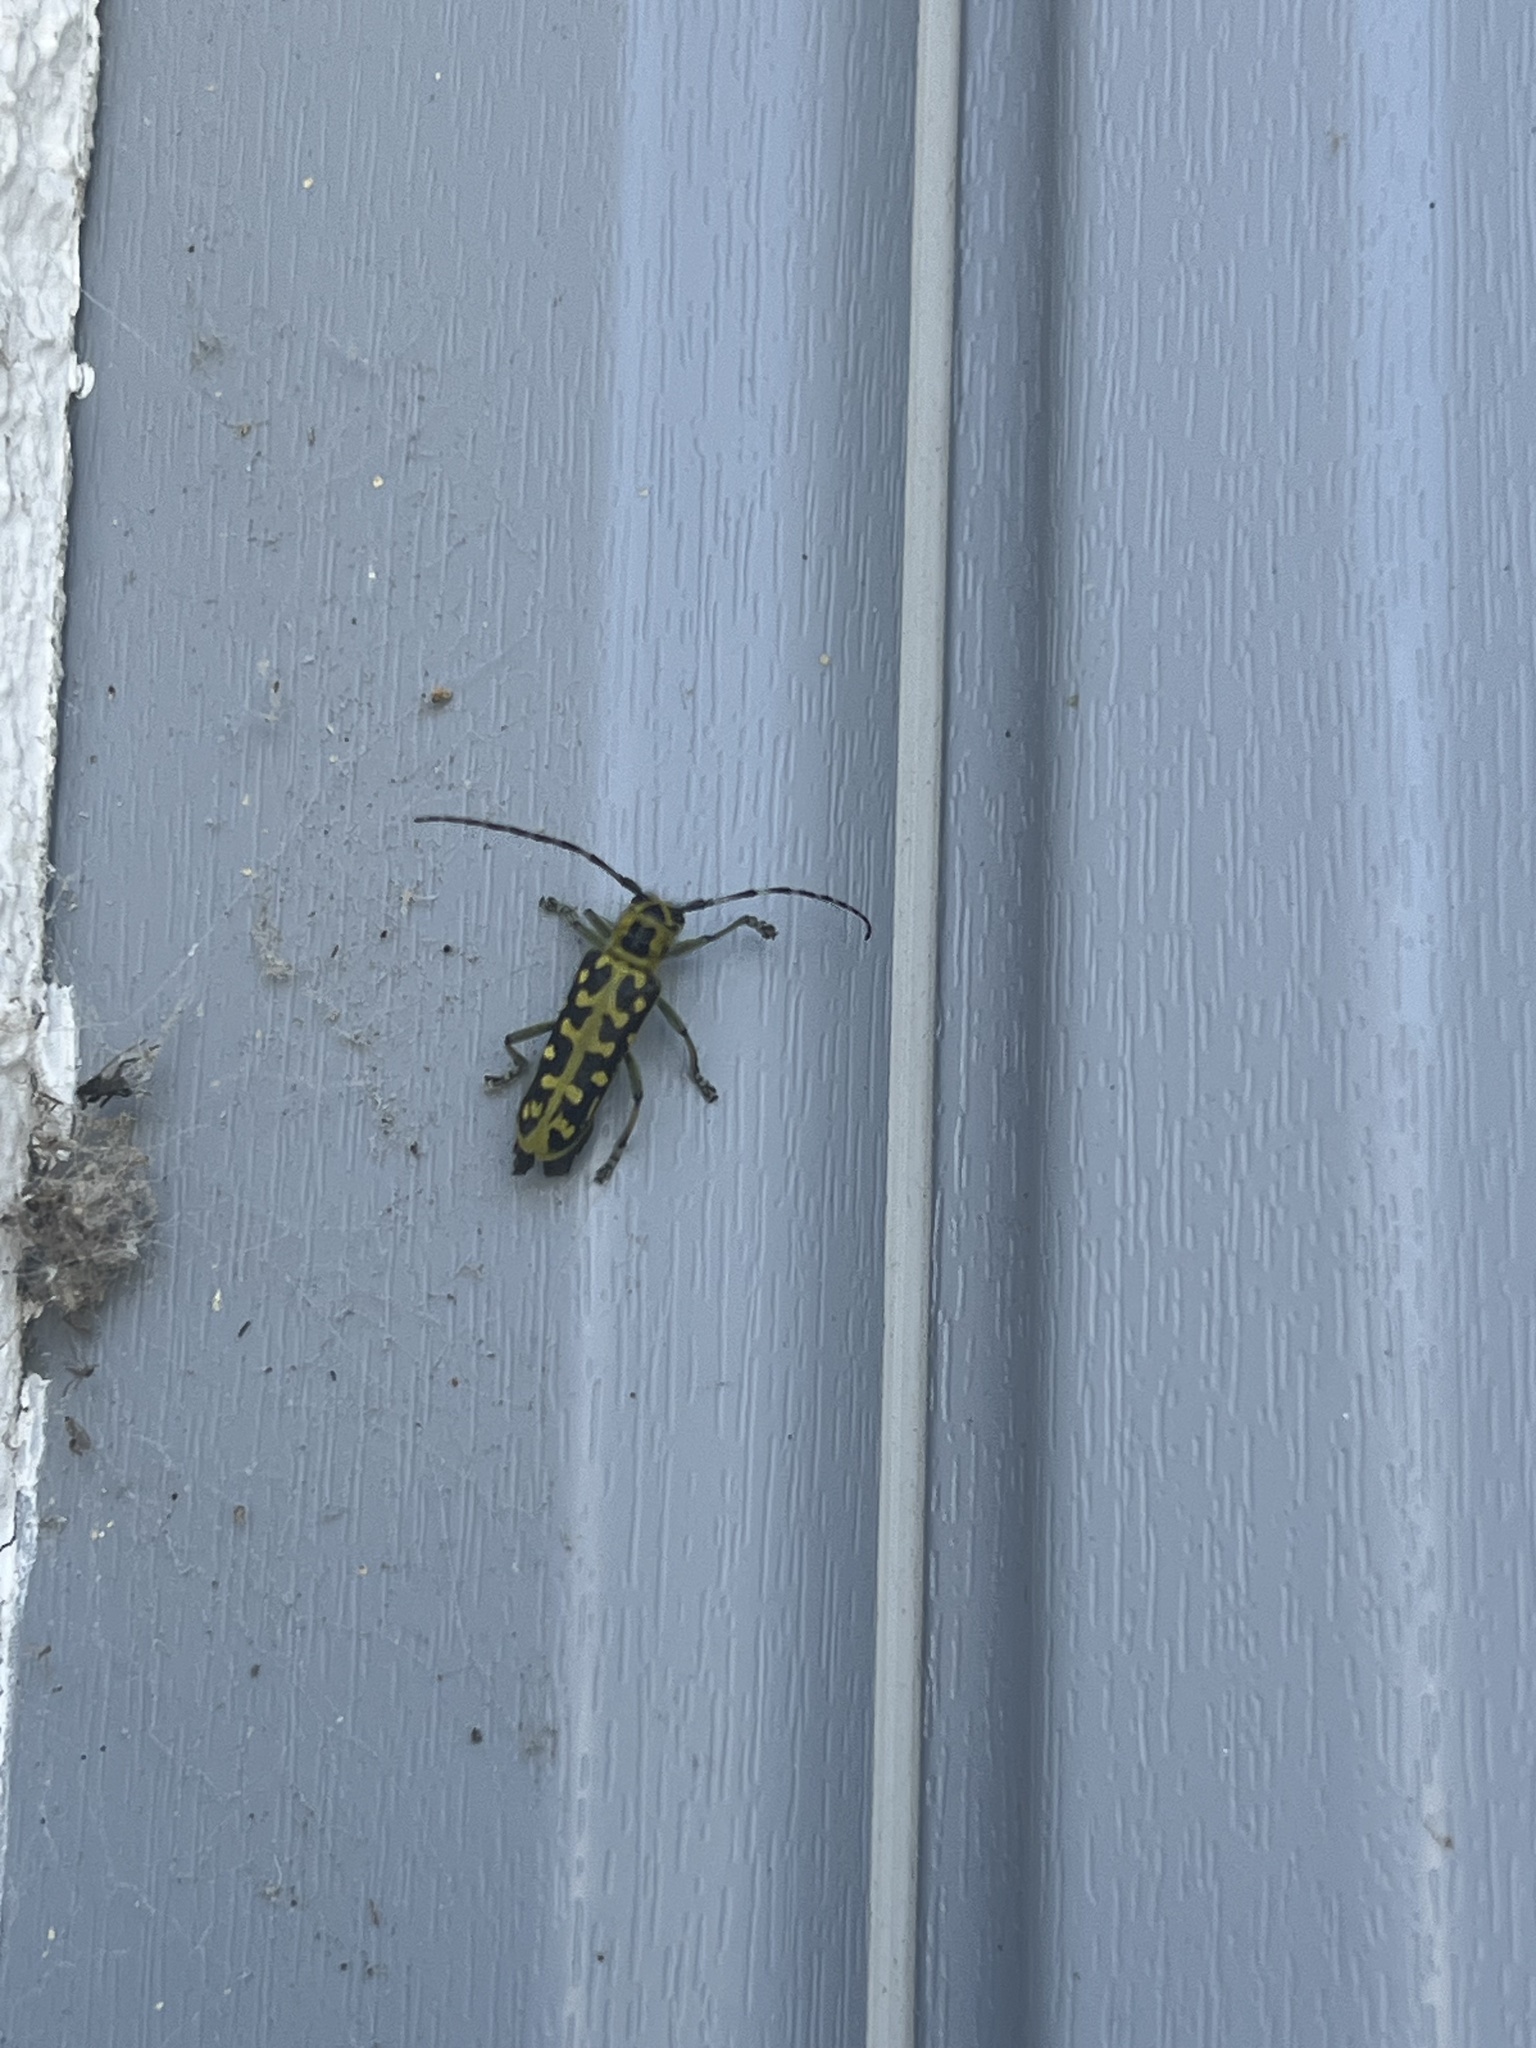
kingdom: Animalia
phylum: Arthropoda
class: Insecta
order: Coleoptera
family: Cerambycidae
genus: Saperda
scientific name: Saperda scalaris
